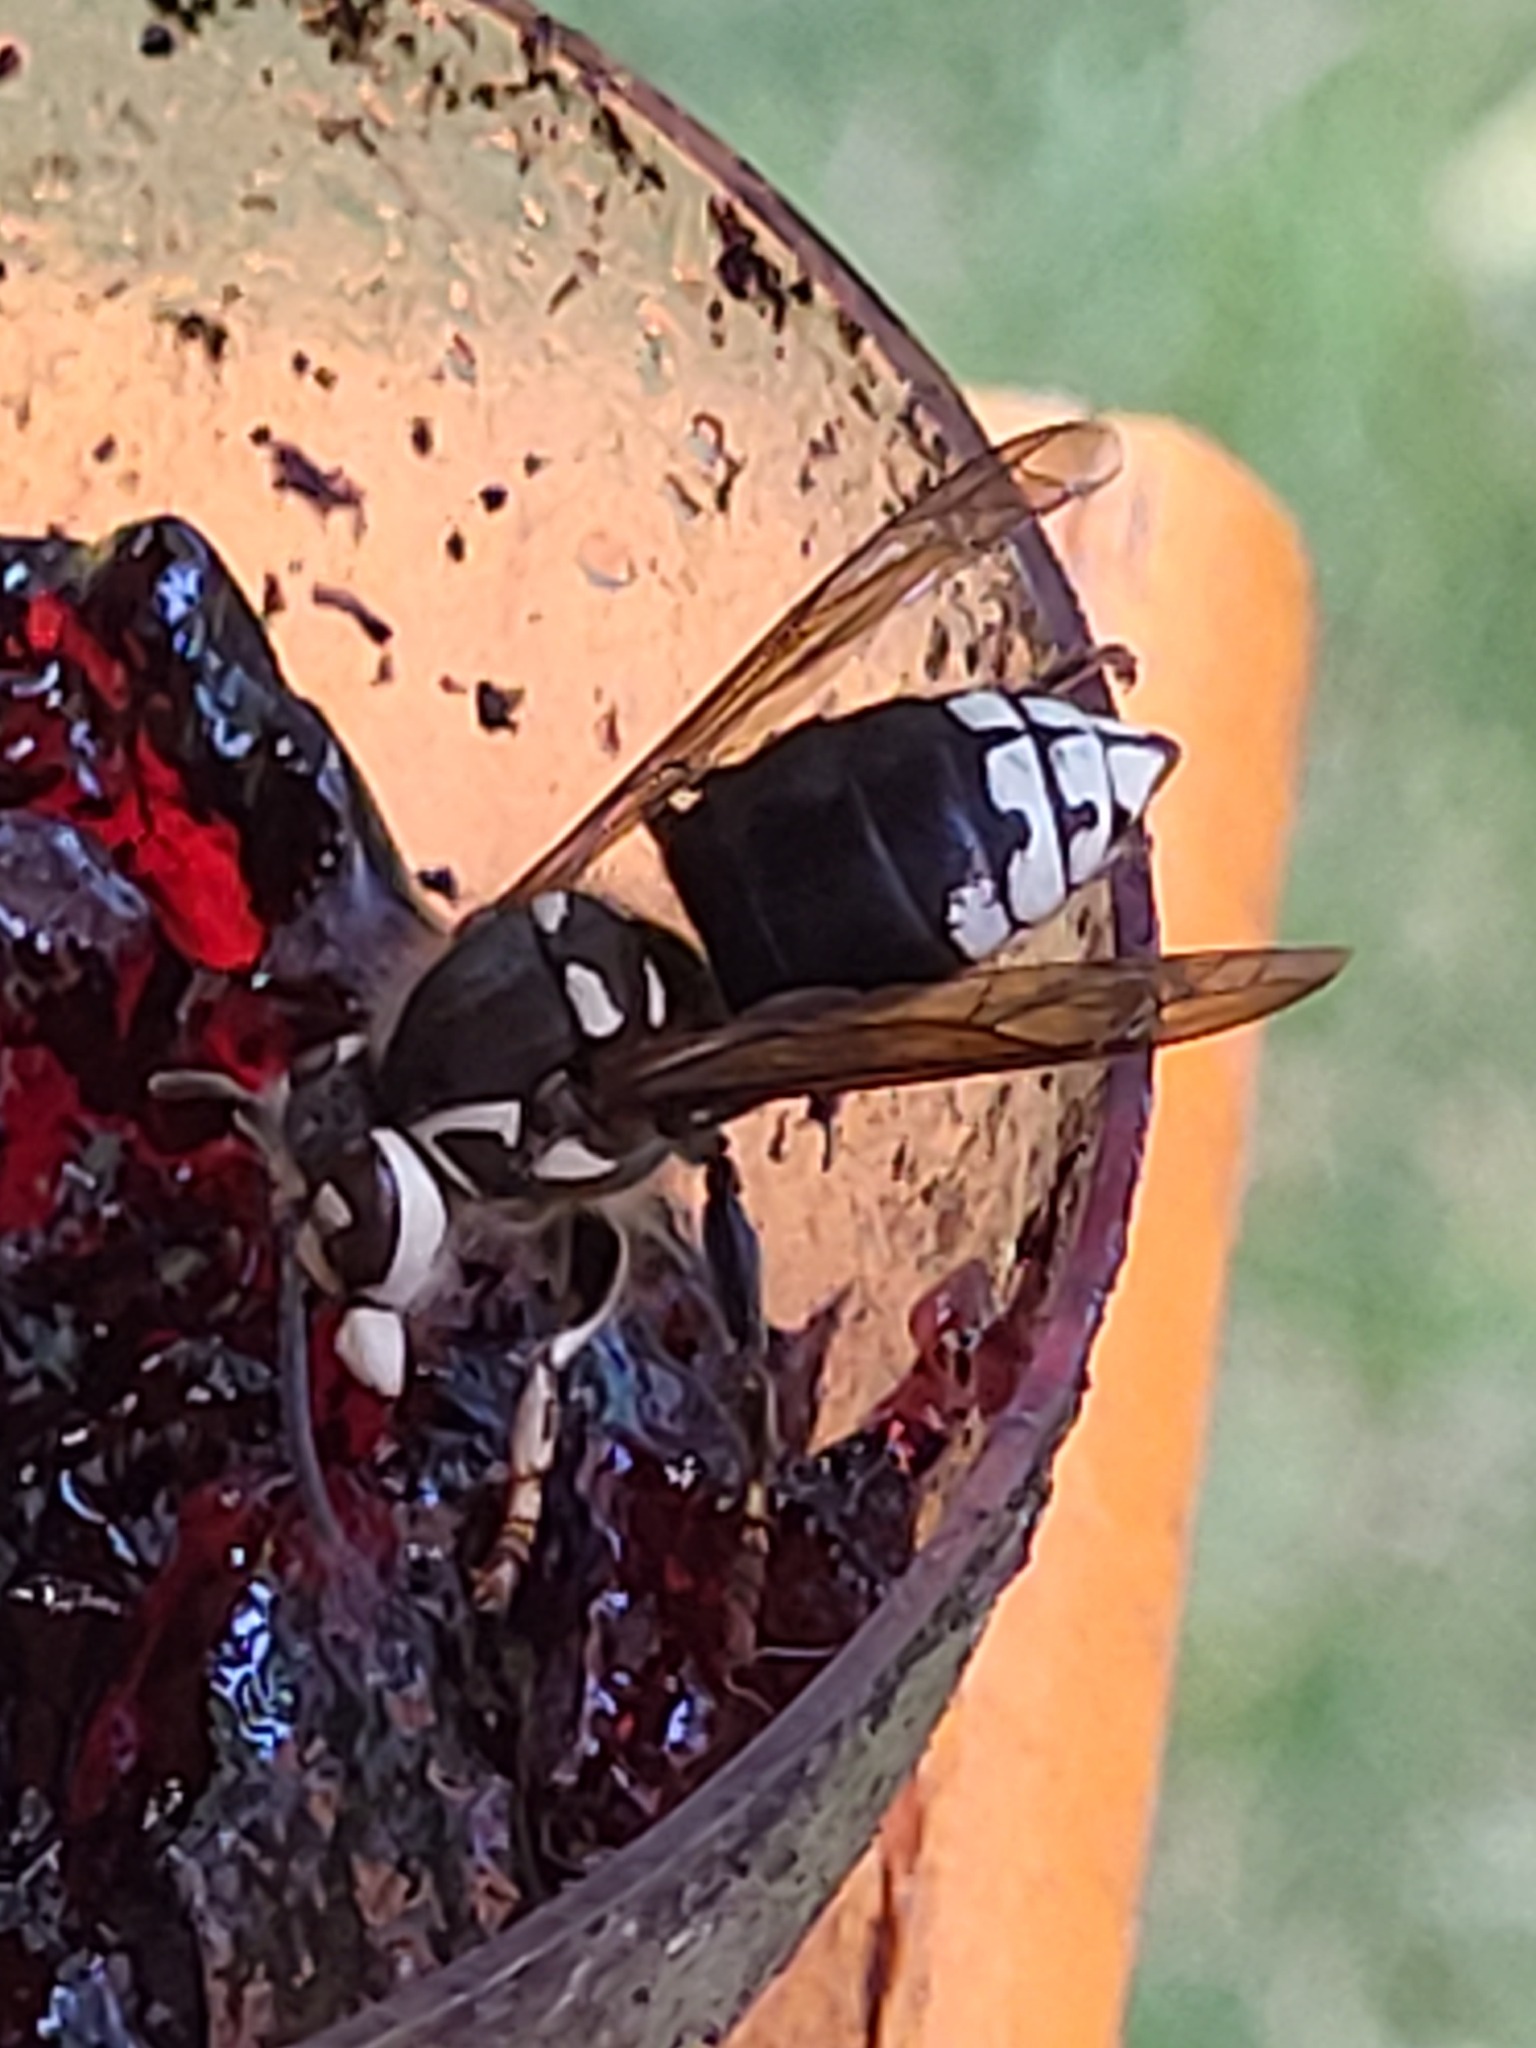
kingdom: Animalia
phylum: Arthropoda
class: Insecta
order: Hymenoptera
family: Vespidae
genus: Dolichovespula
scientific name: Dolichovespula maculata
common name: Bald-faced hornet
